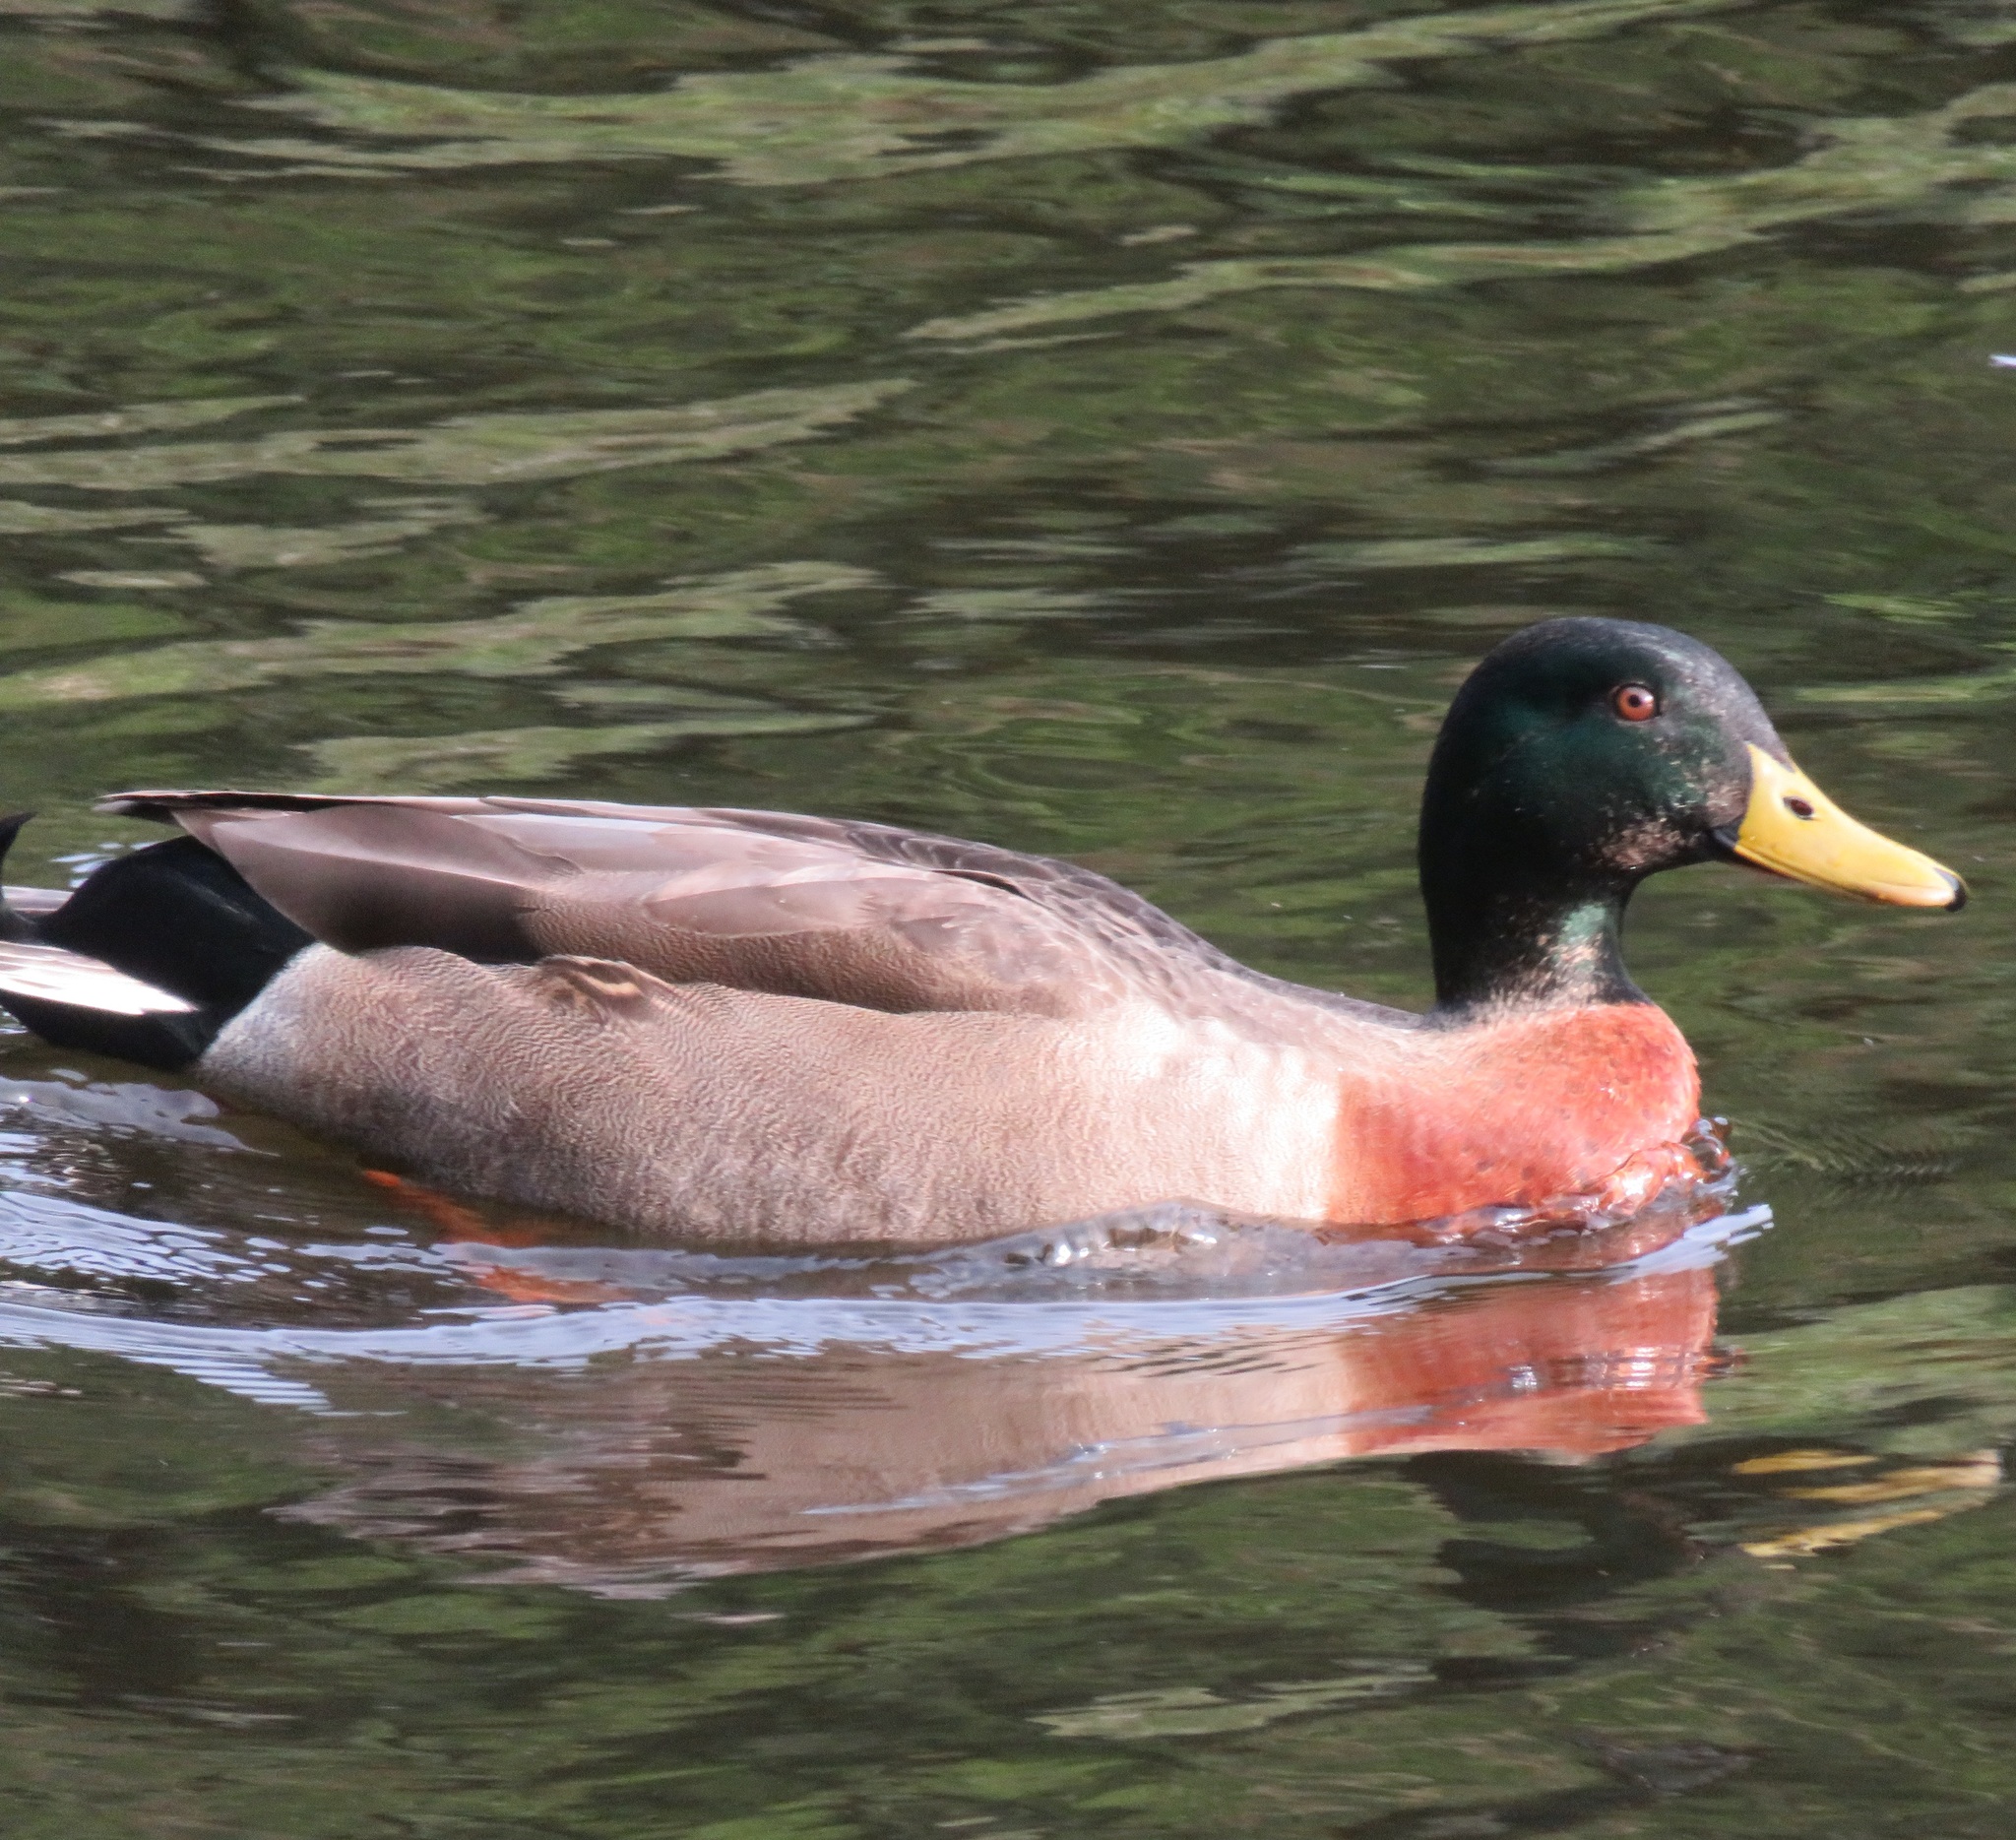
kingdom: Animalia
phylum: Chordata
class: Aves
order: Anseriformes
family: Anatidae
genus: Anas
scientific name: Anas
